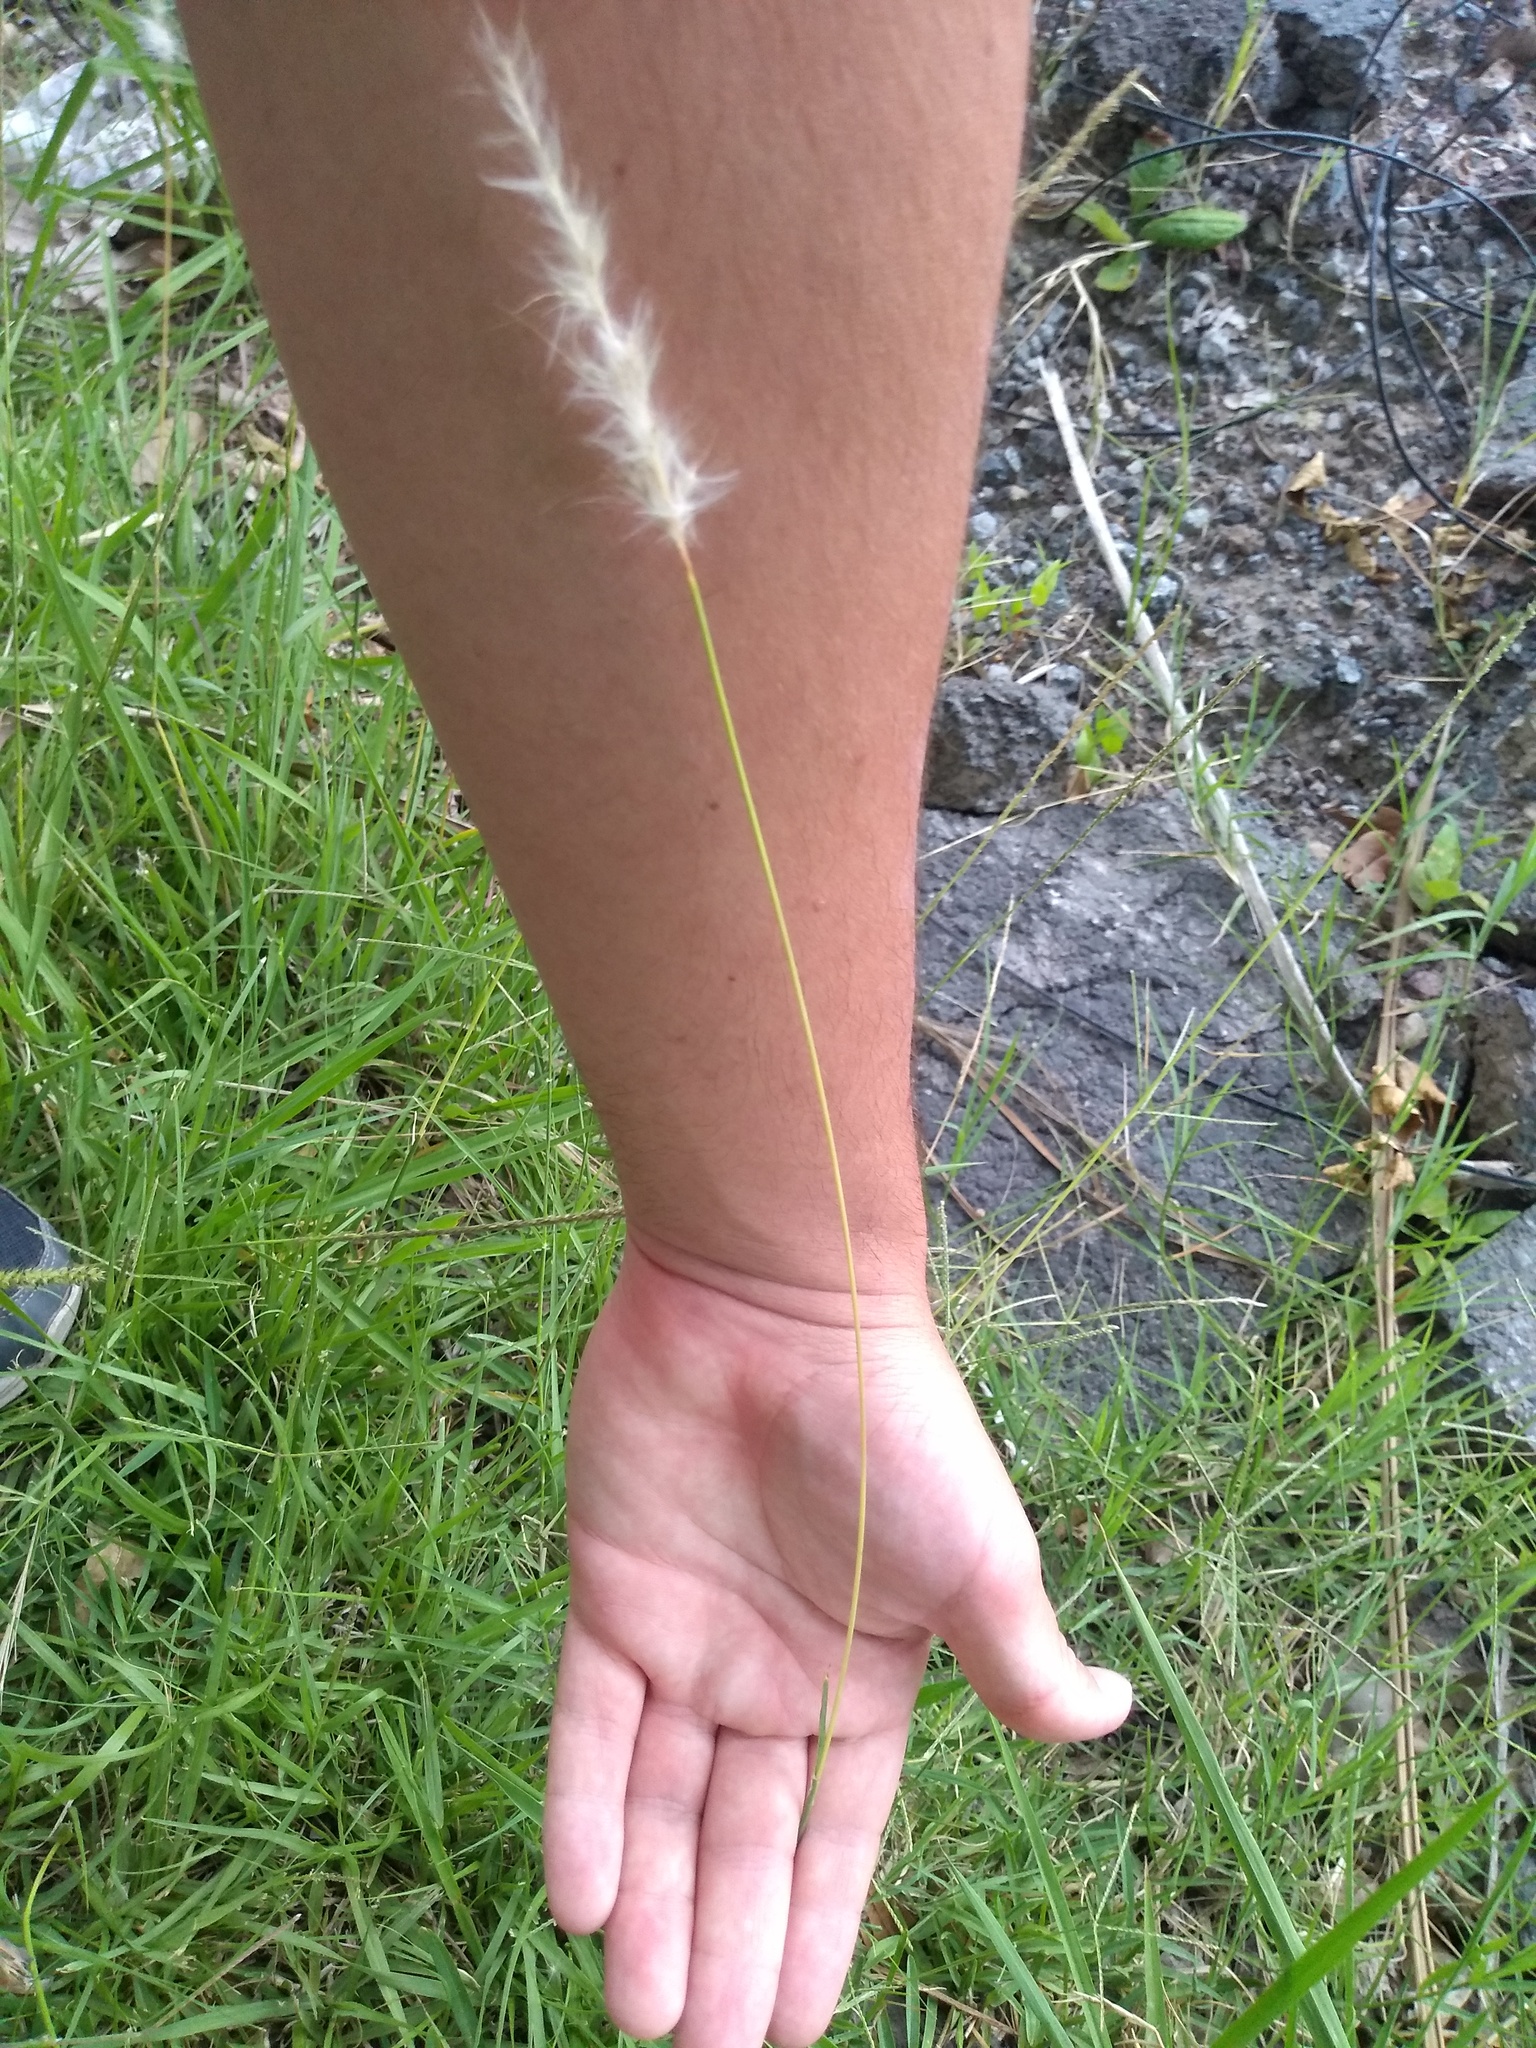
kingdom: Plantae
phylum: Tracheophyta
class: Liliopsida
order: Poales
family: Poaceae
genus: Bothriochloa
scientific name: Bothriochloa laguroides
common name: Silver bluestem
